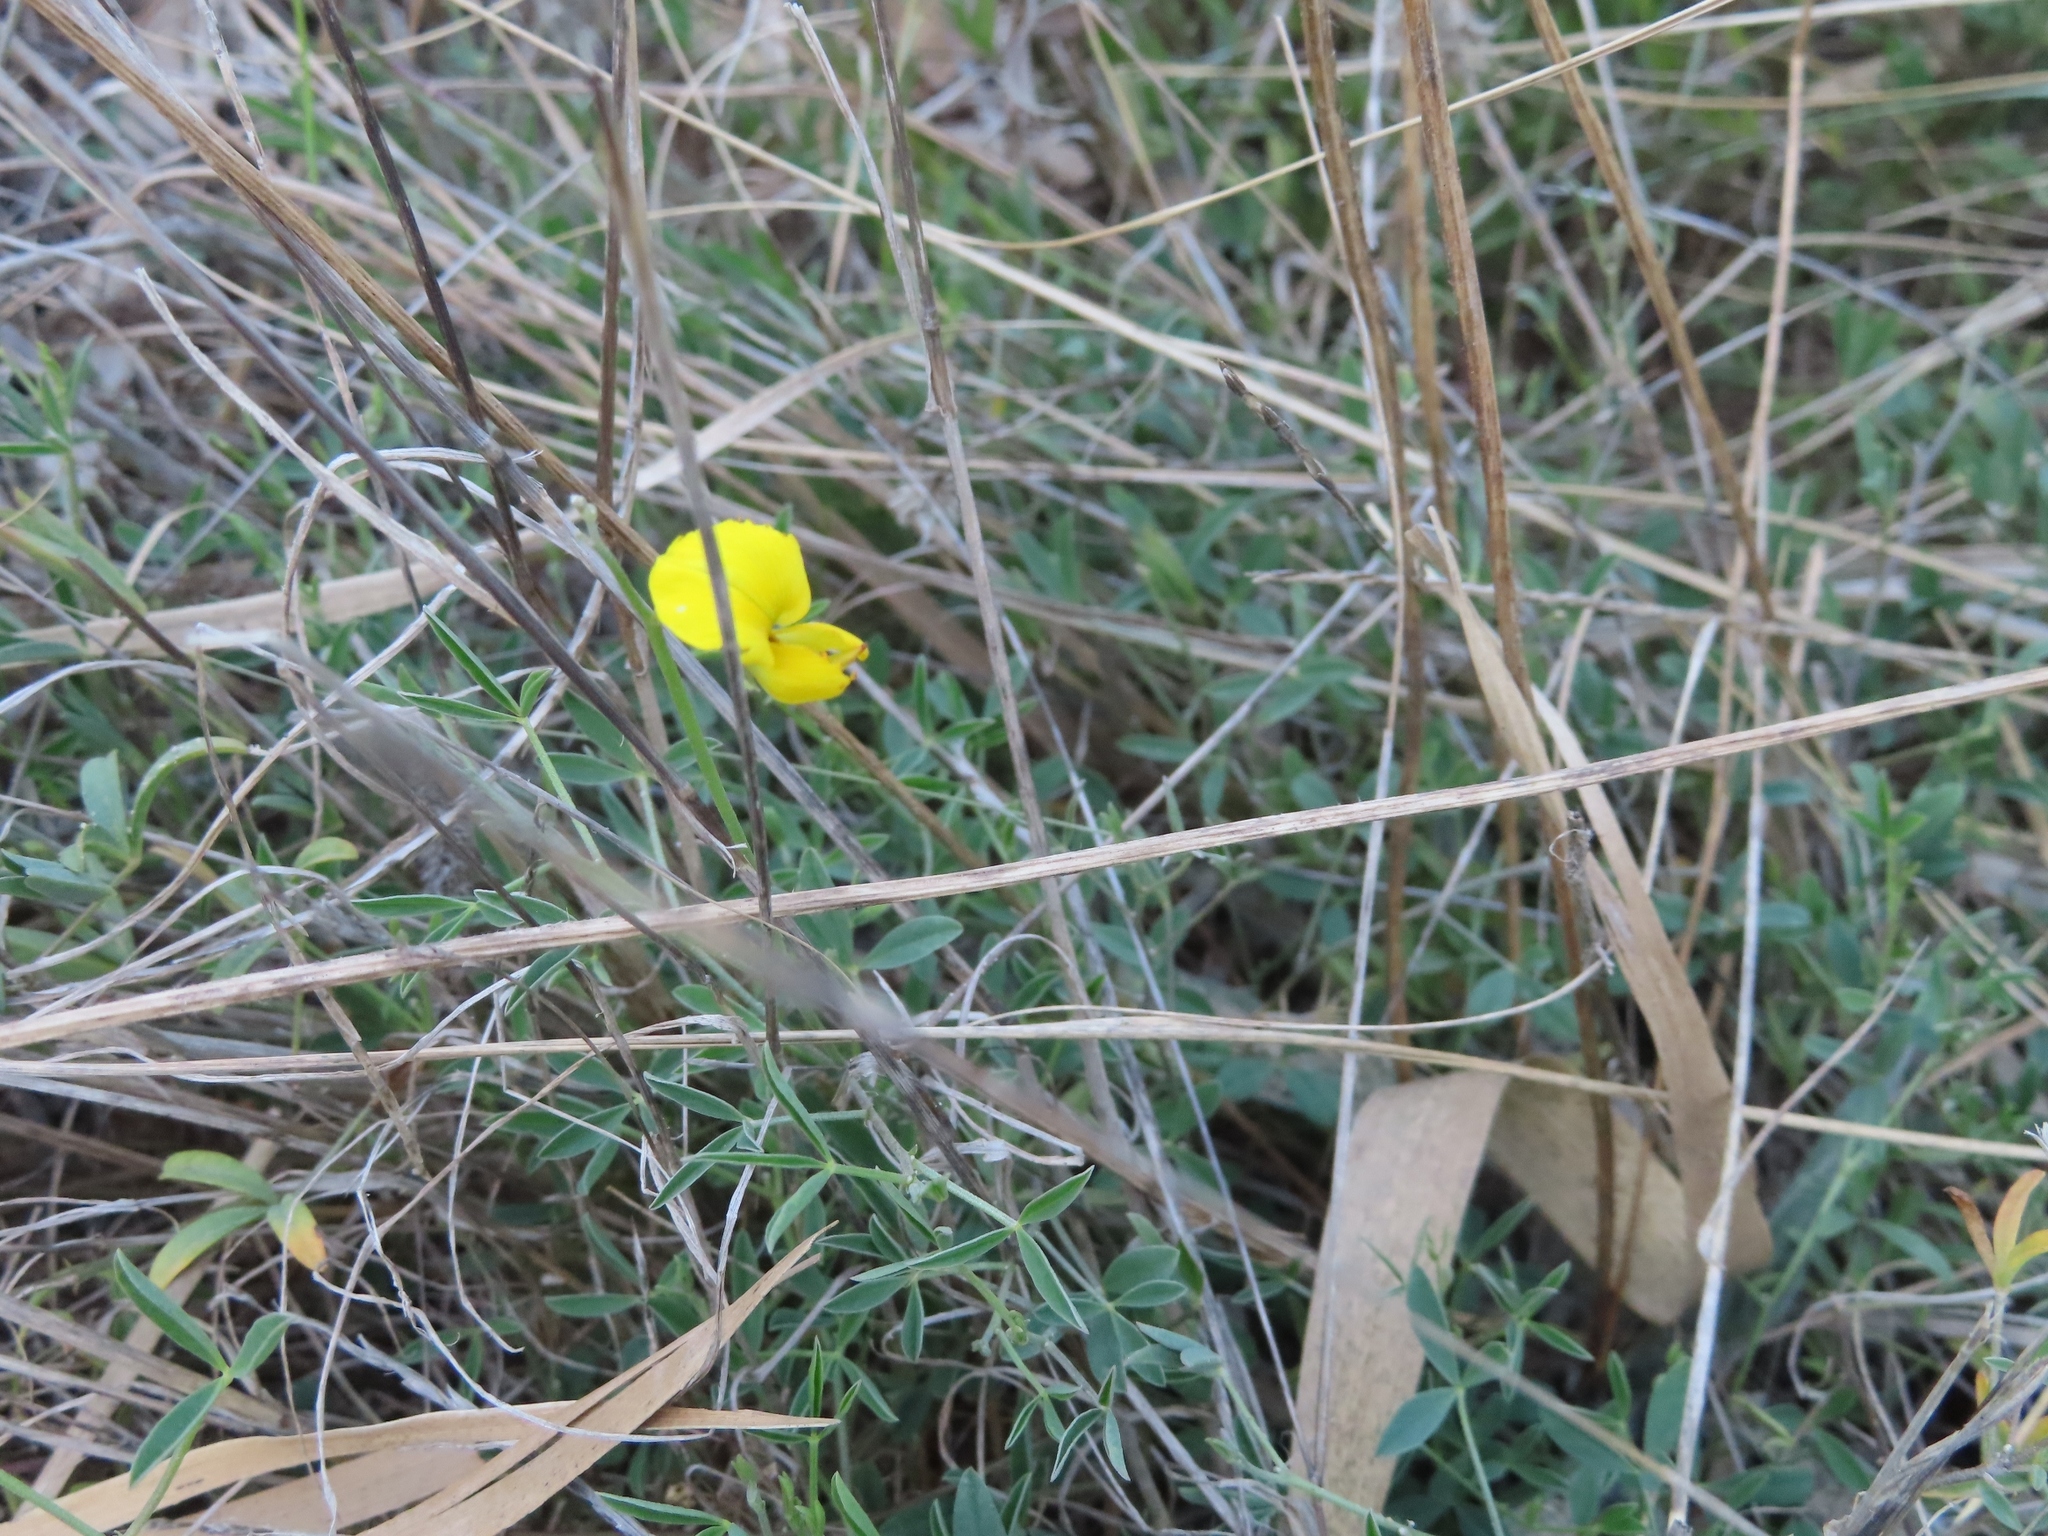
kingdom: Plantae
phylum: Tracheophyta
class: Magnoliopsida
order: Fabales
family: Fabaceae
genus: Crotalaria
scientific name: Crotalaria excisa
